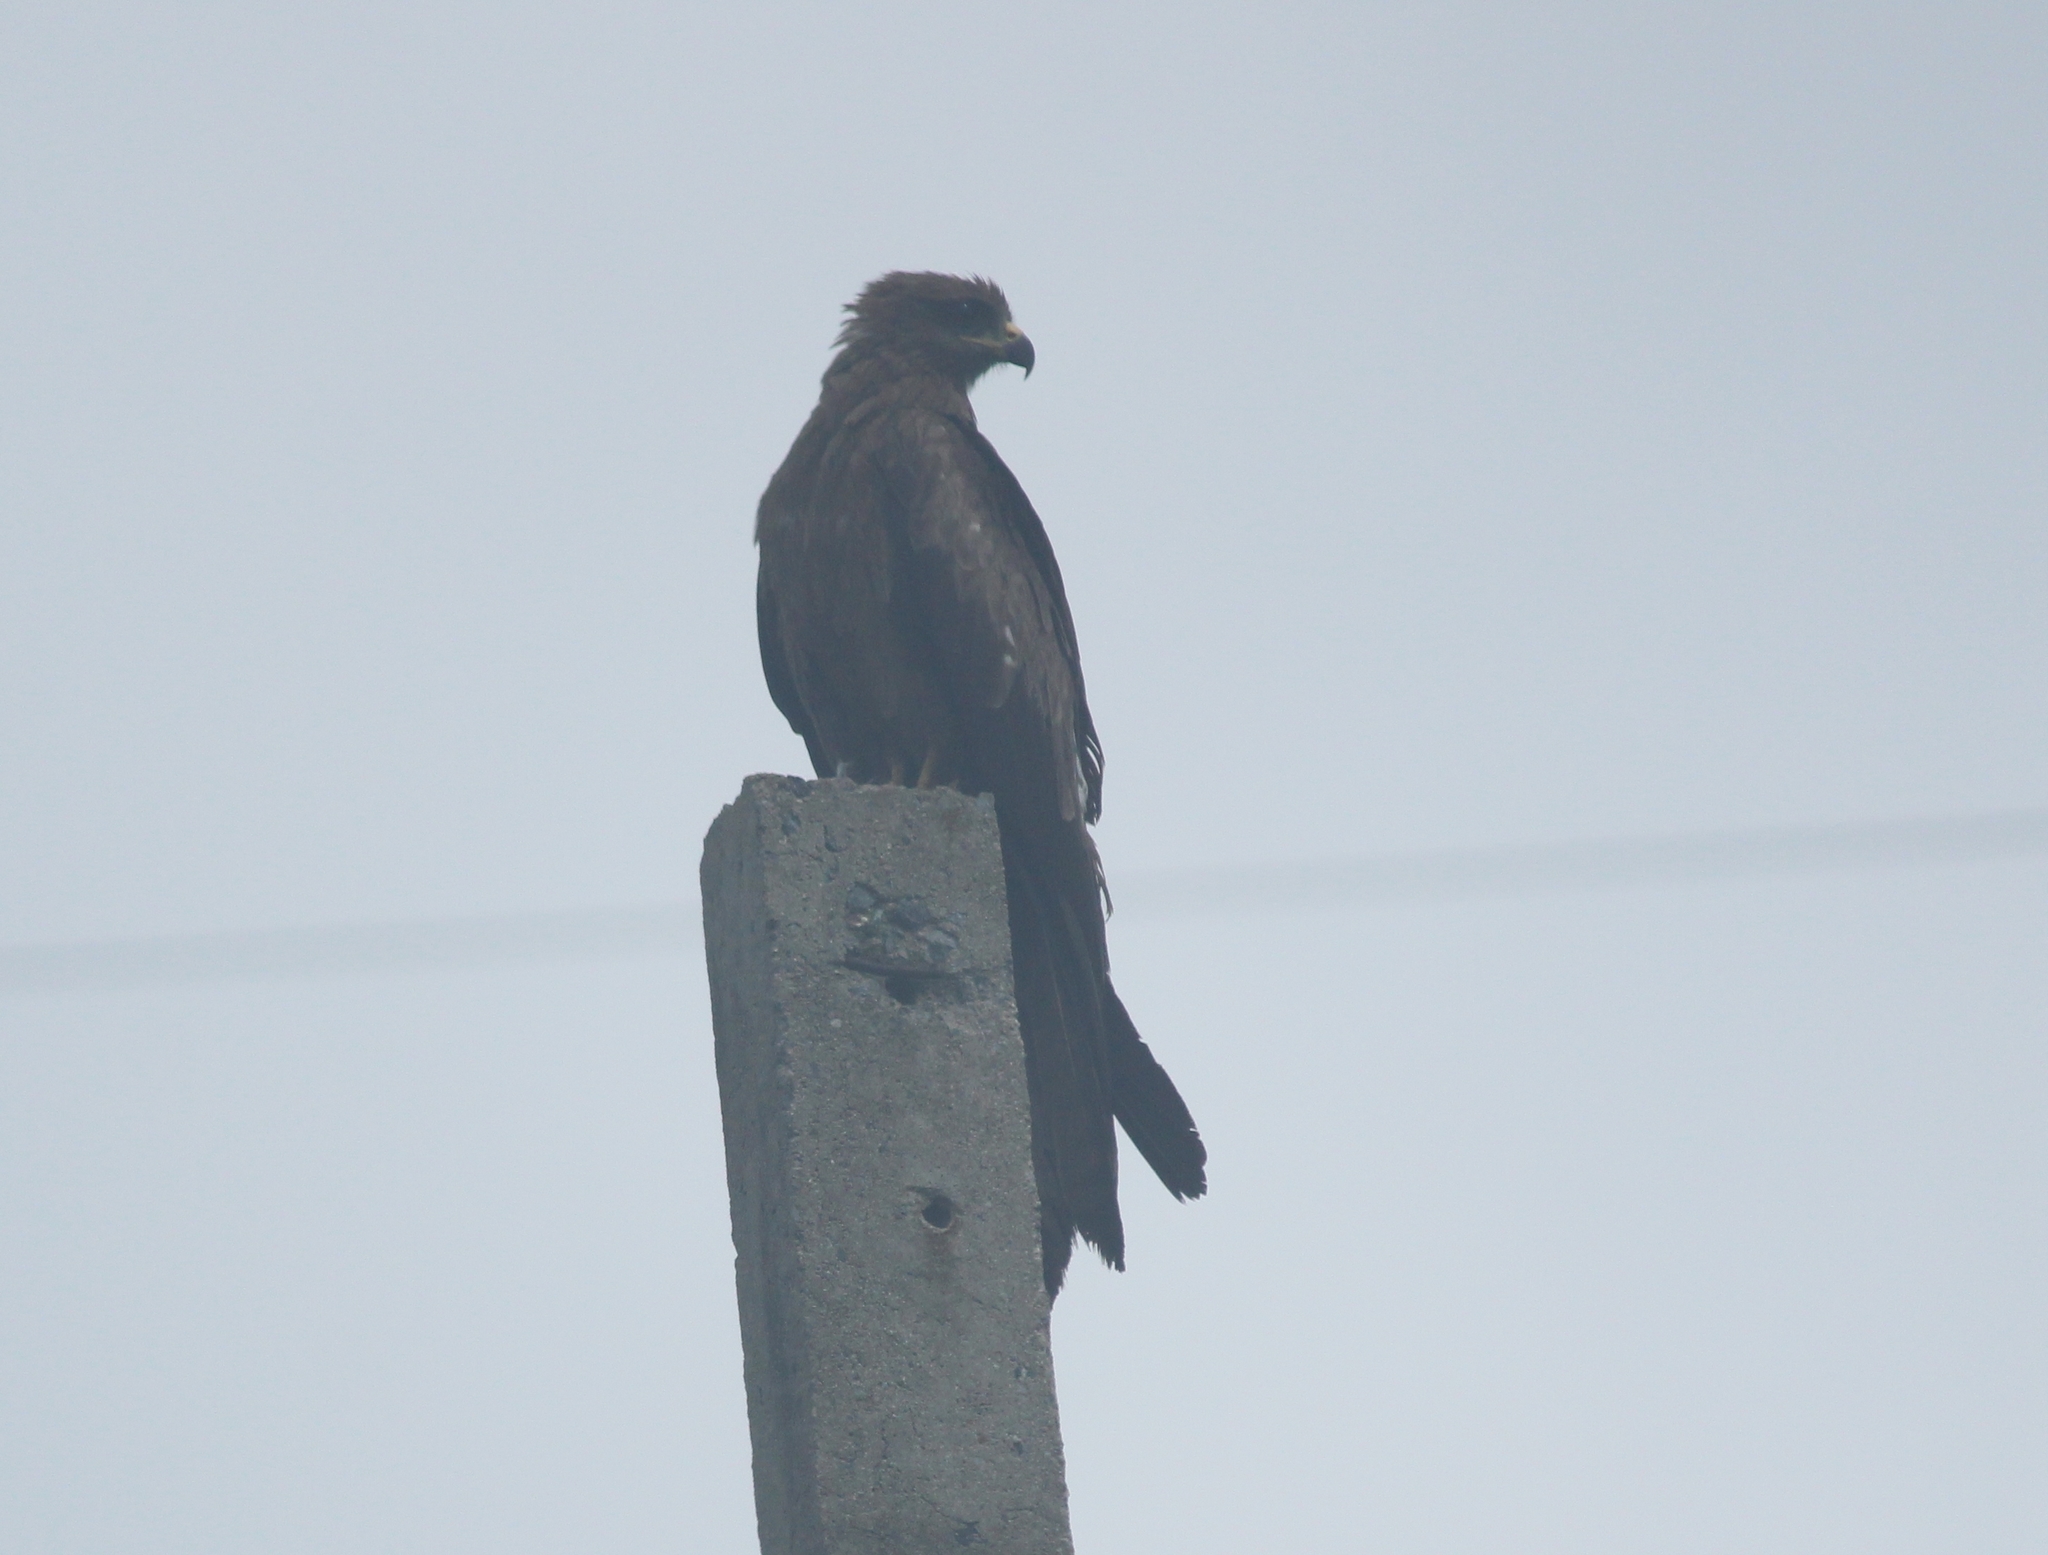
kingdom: Animalia
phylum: Chordata
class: Aves
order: Accipitriformes
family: Accipitridae
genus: Milvus
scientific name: Milvus migrans
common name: Black kite
